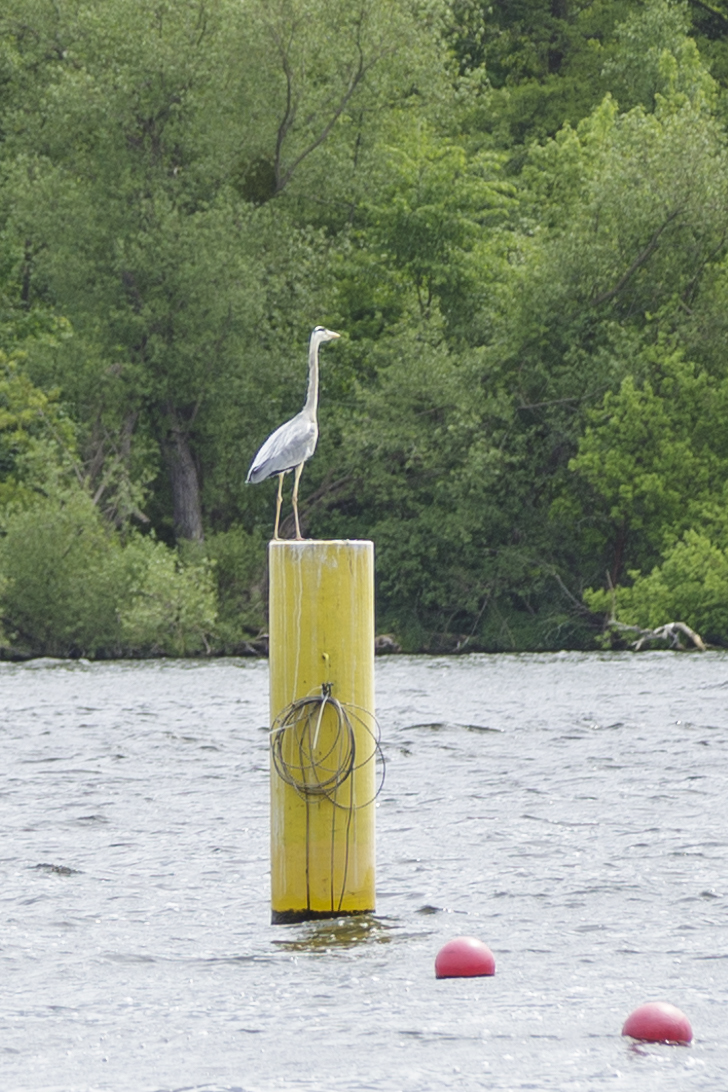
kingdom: Animalia
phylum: Chordata
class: Aves
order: Pelecaniformes
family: Ardeidae
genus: Ardea
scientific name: Ardea cinerea
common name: Grey heron
